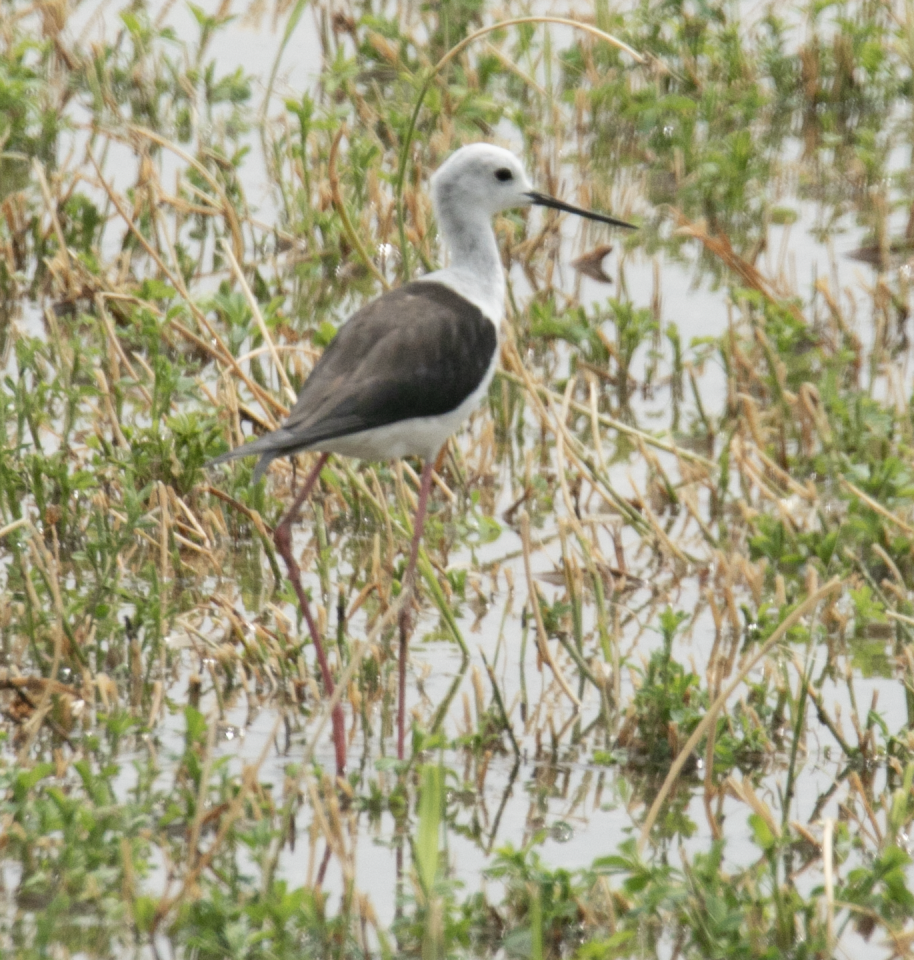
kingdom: Animalia
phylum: Chordata
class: Aves
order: Charadriiformes
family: Recurvirostridae
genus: Himantopus
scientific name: Himantopus himantopus
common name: Black-winged stilt
